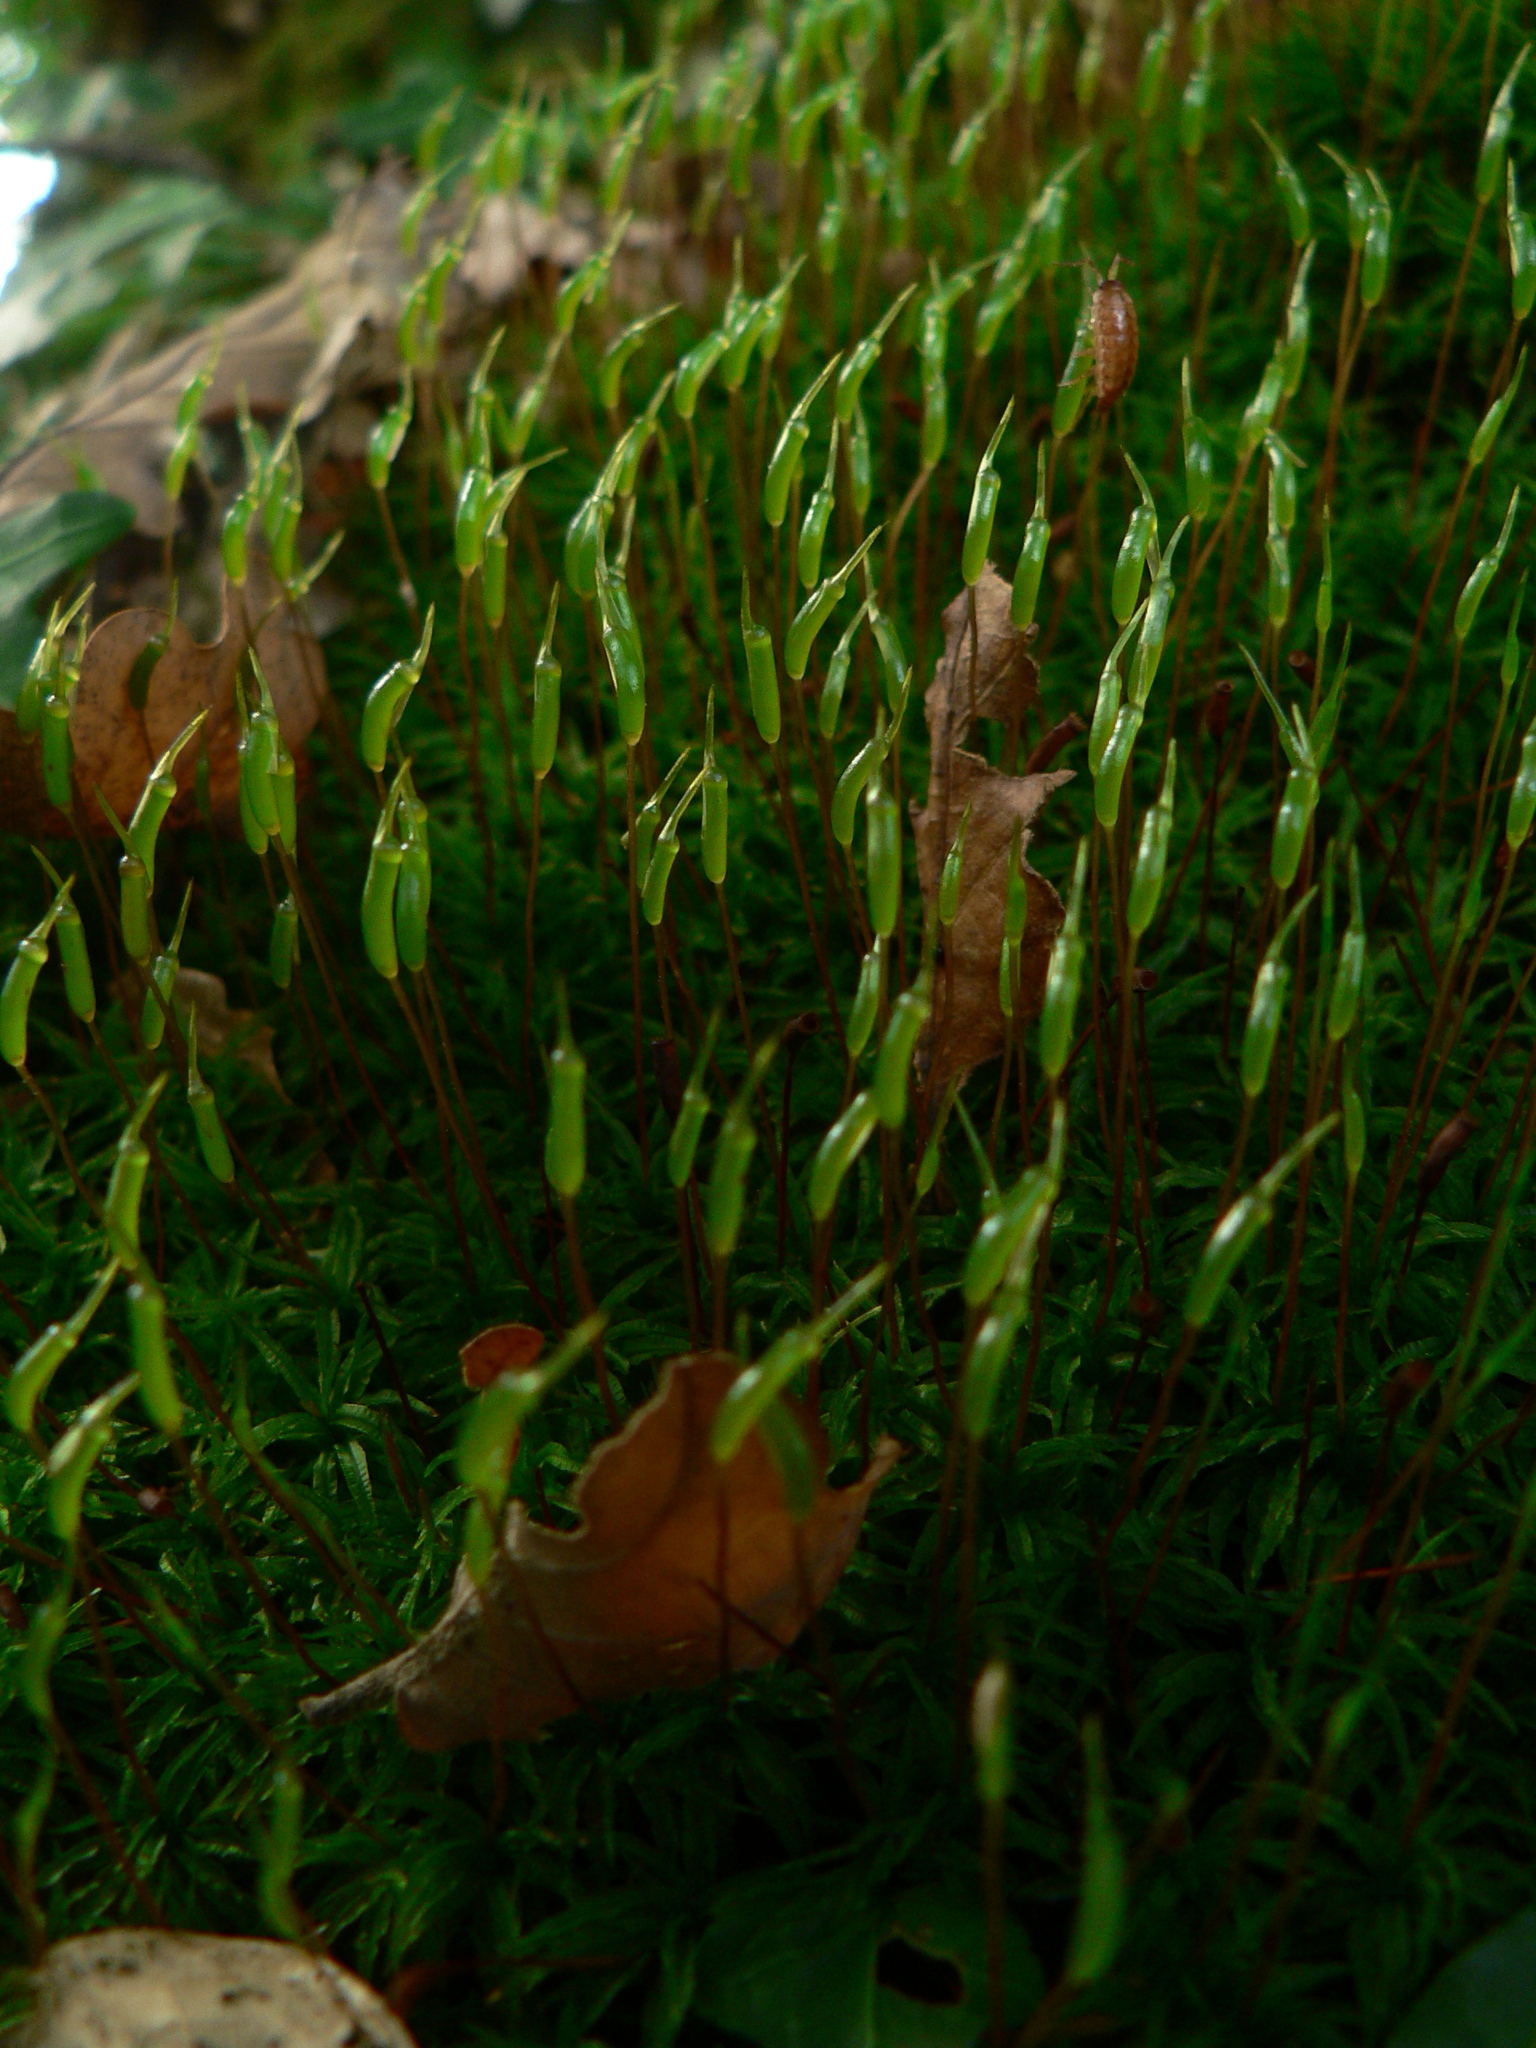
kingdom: Plantae
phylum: Bryophyta
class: Polytrichopsida
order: Polytrichales
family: Polytrichaceae
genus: Atrichum
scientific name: Atrichum undulatum
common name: Common smoothcap
